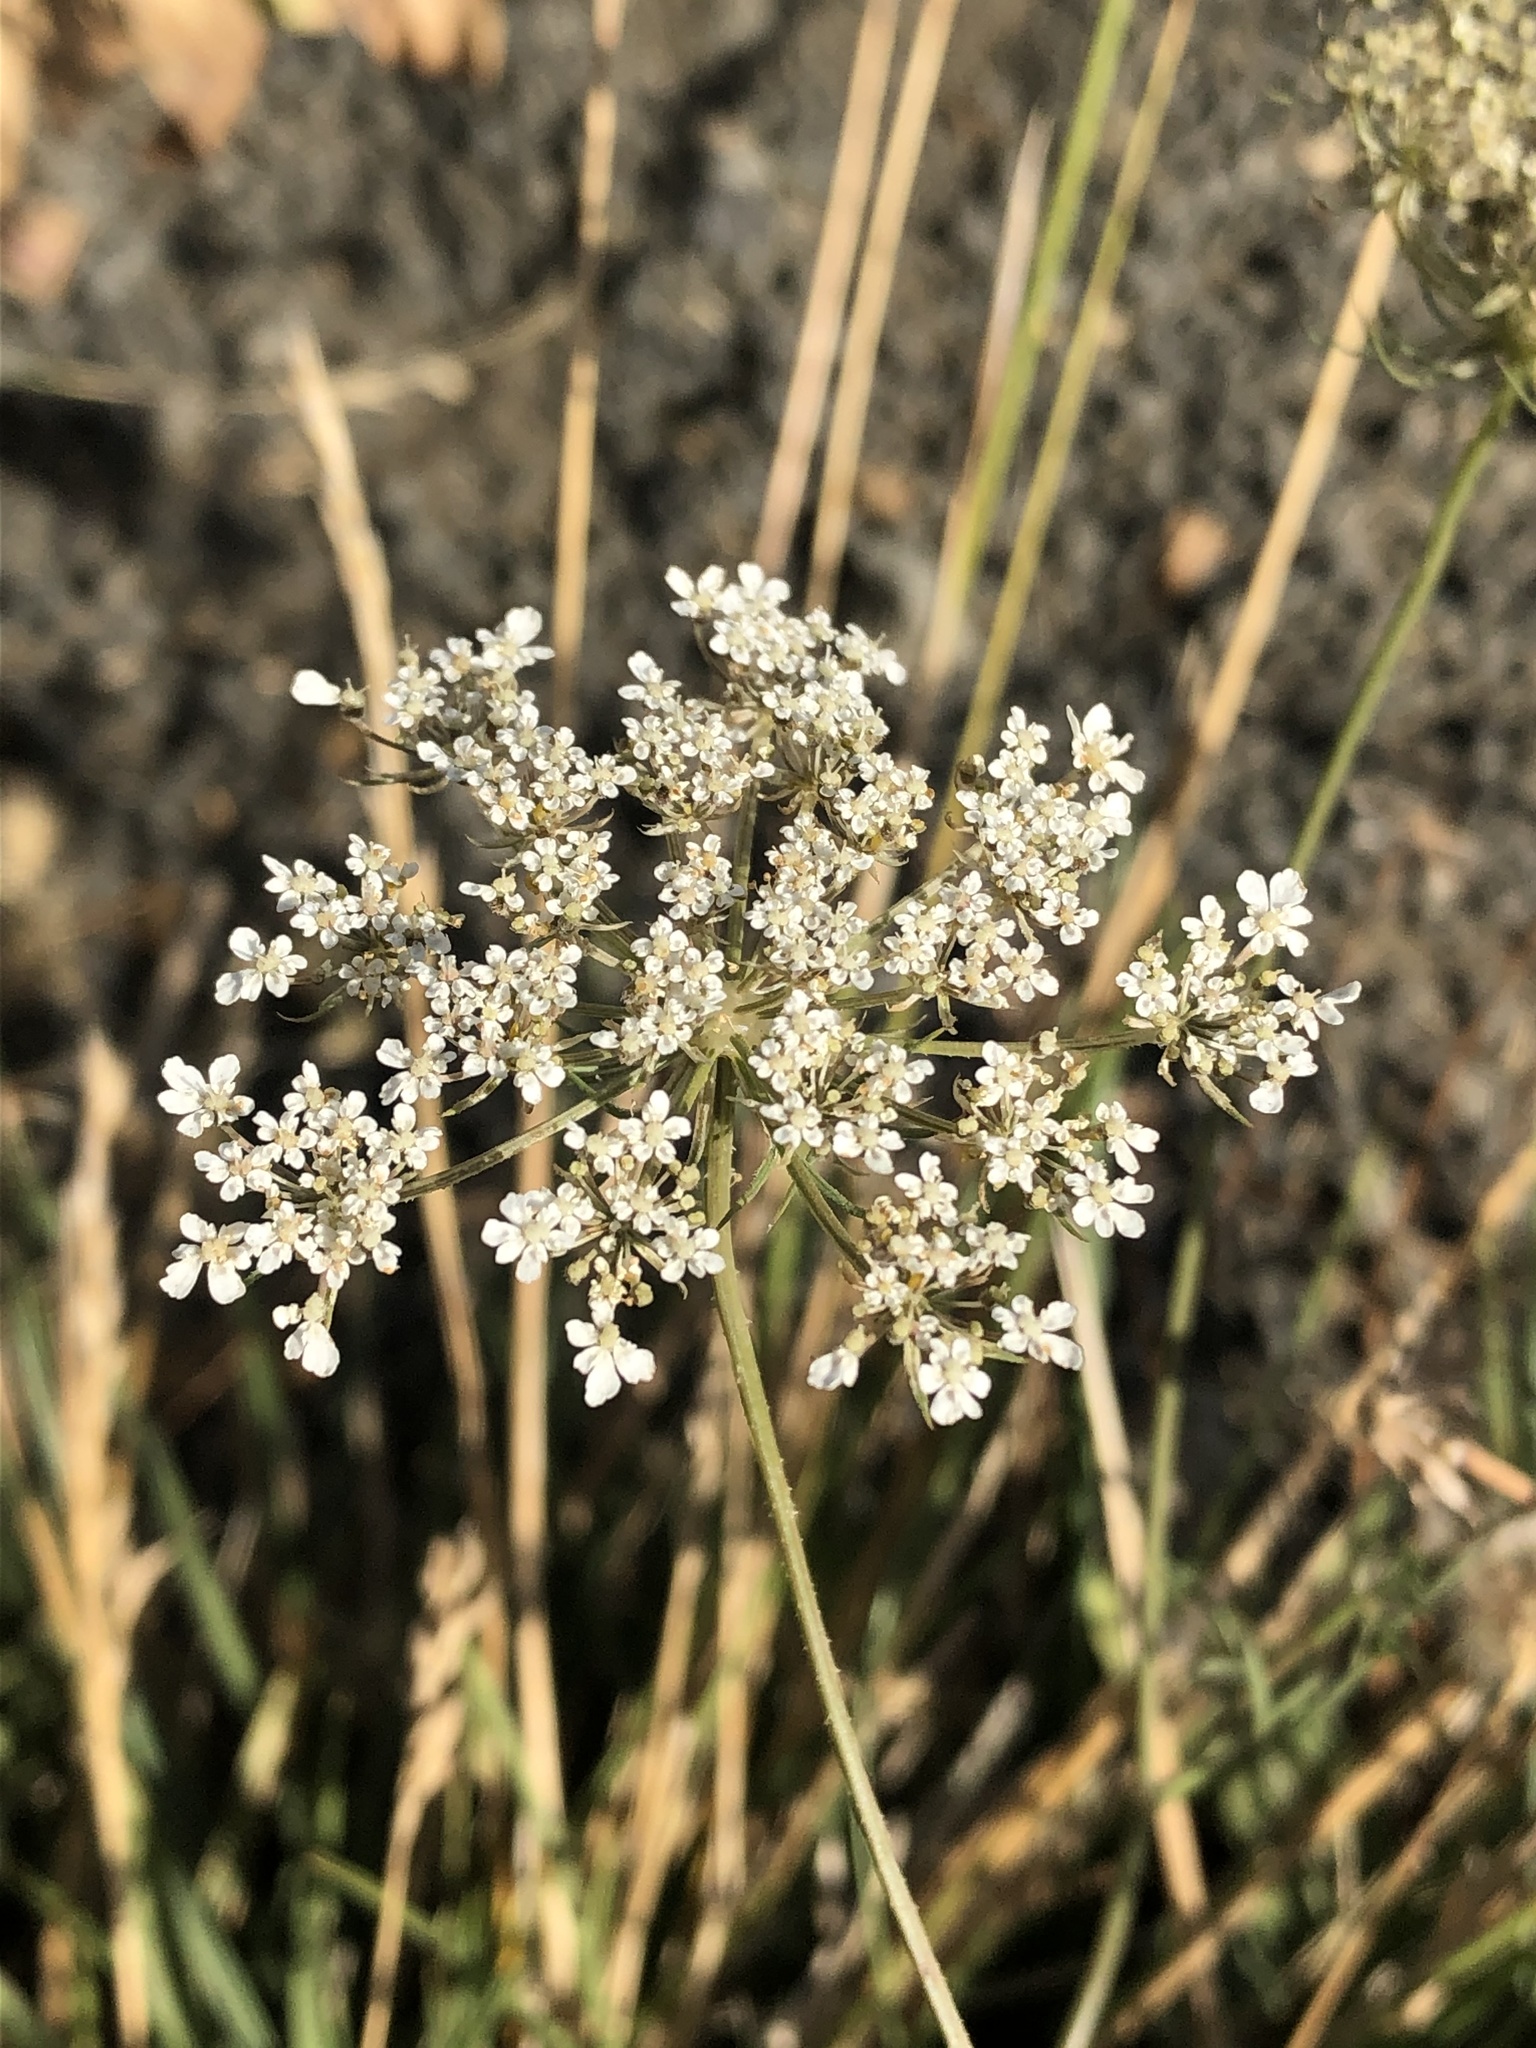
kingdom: Plantae
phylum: Tracheophyta
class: Magnoliopsida
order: Apiales
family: Apiaceae
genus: Daucus
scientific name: Daucus carota
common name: Wild carrot
